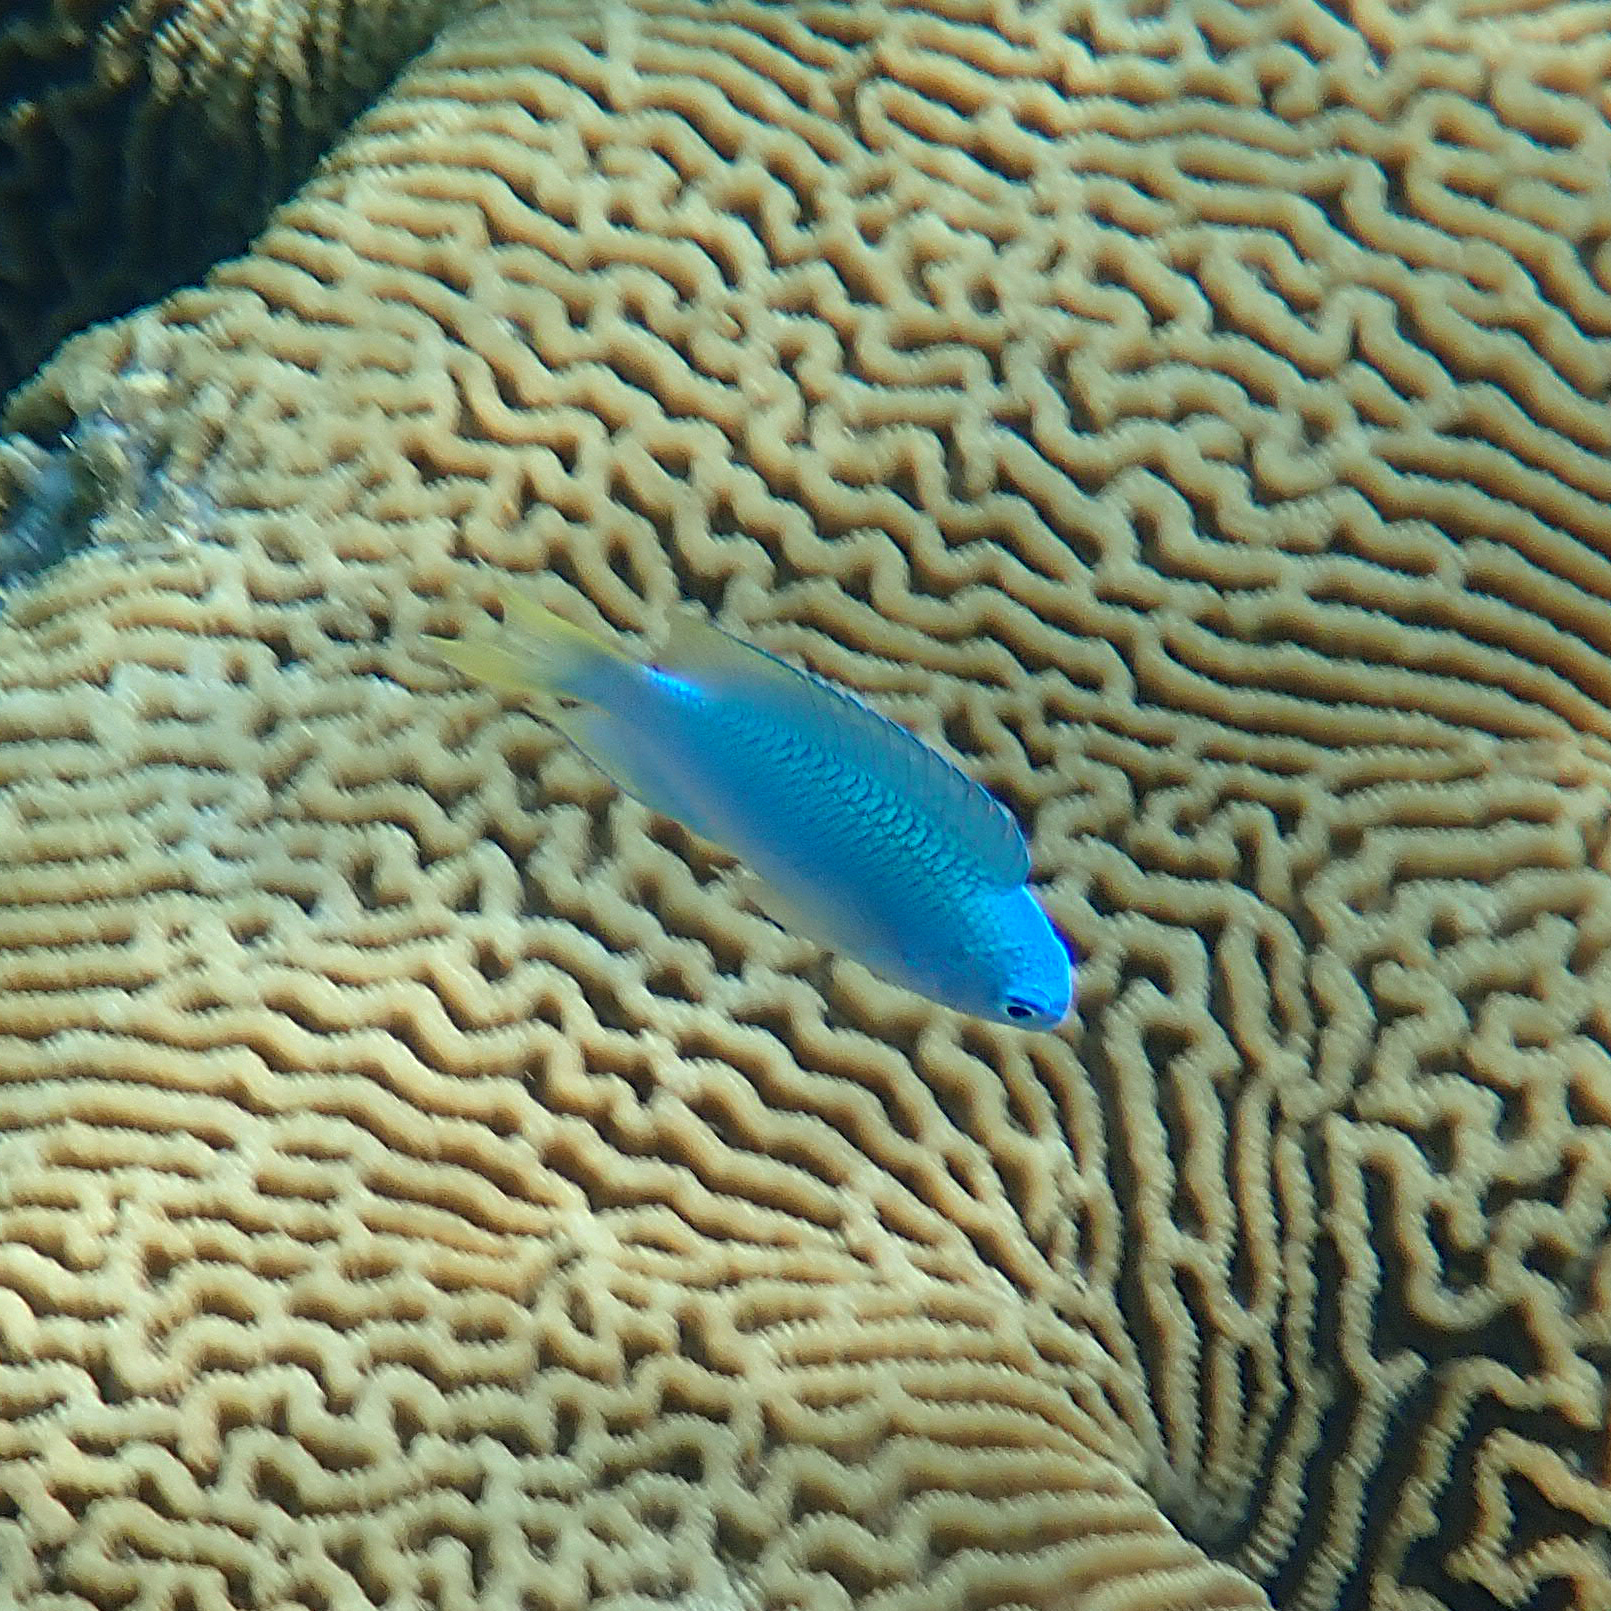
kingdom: Animalia
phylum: Chordata
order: Perciformes
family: Pomacentridae
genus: Pomacentrus
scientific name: Pomacentrus pavo
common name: Sapphire damsel
